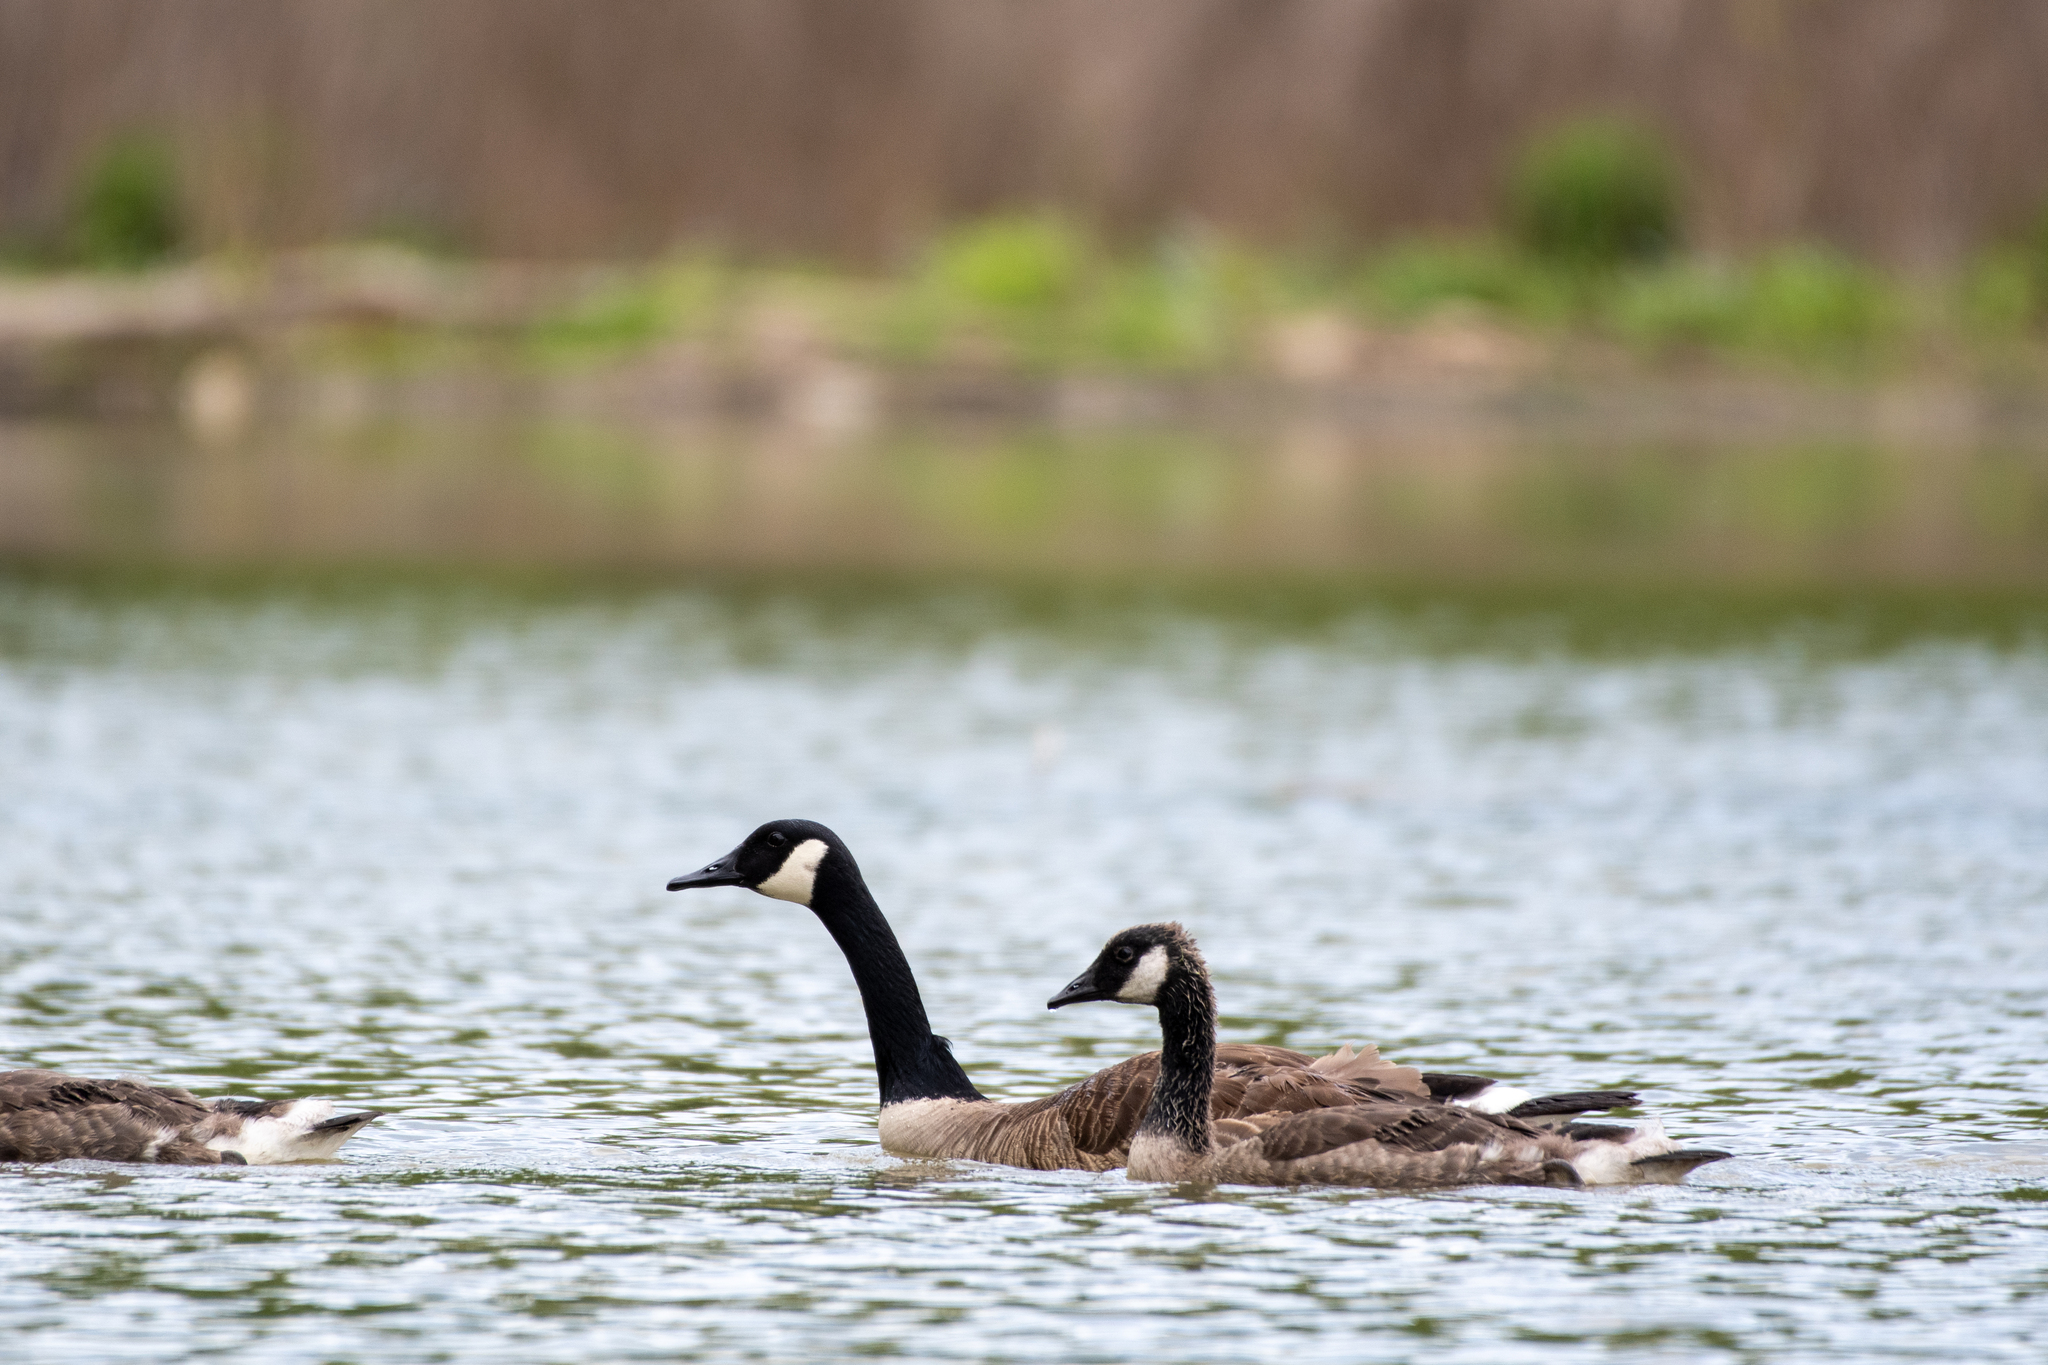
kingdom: Animalia
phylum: Chordata
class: Aves
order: Anseriformes
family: Anatidae
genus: Branta
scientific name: Branta canadensis
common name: Canada goose
